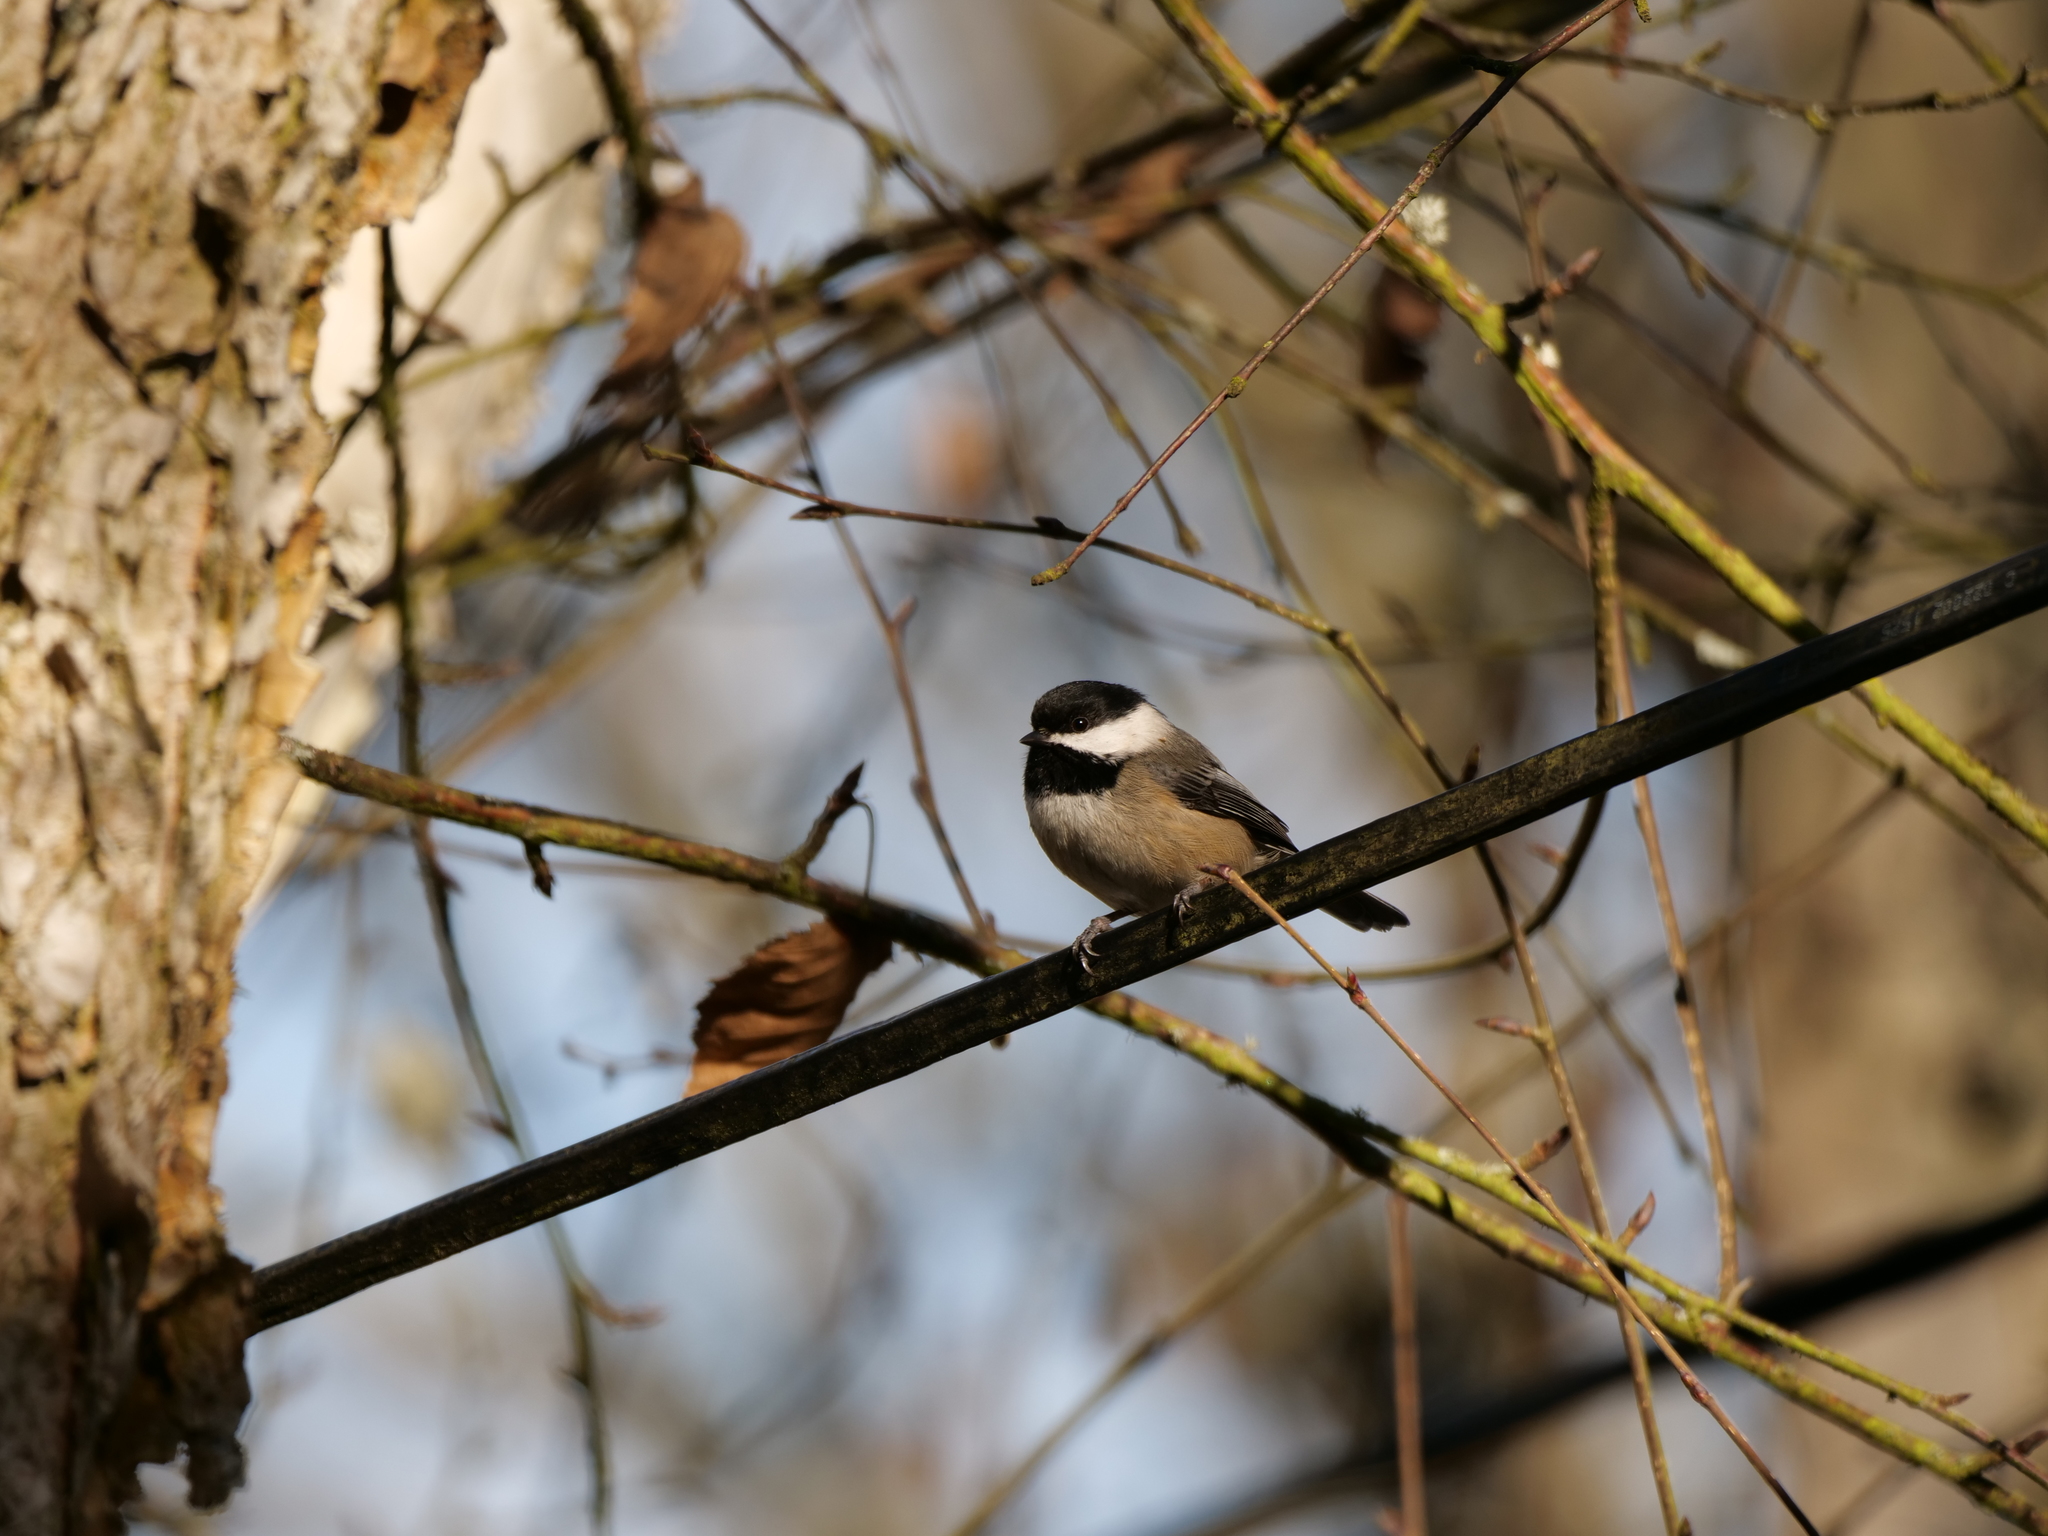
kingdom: Animalia
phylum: Chordata
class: Aves
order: Passeriformes
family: Paridae
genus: Poecile
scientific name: Poecile atricapillus
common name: Black-capped chickadee
